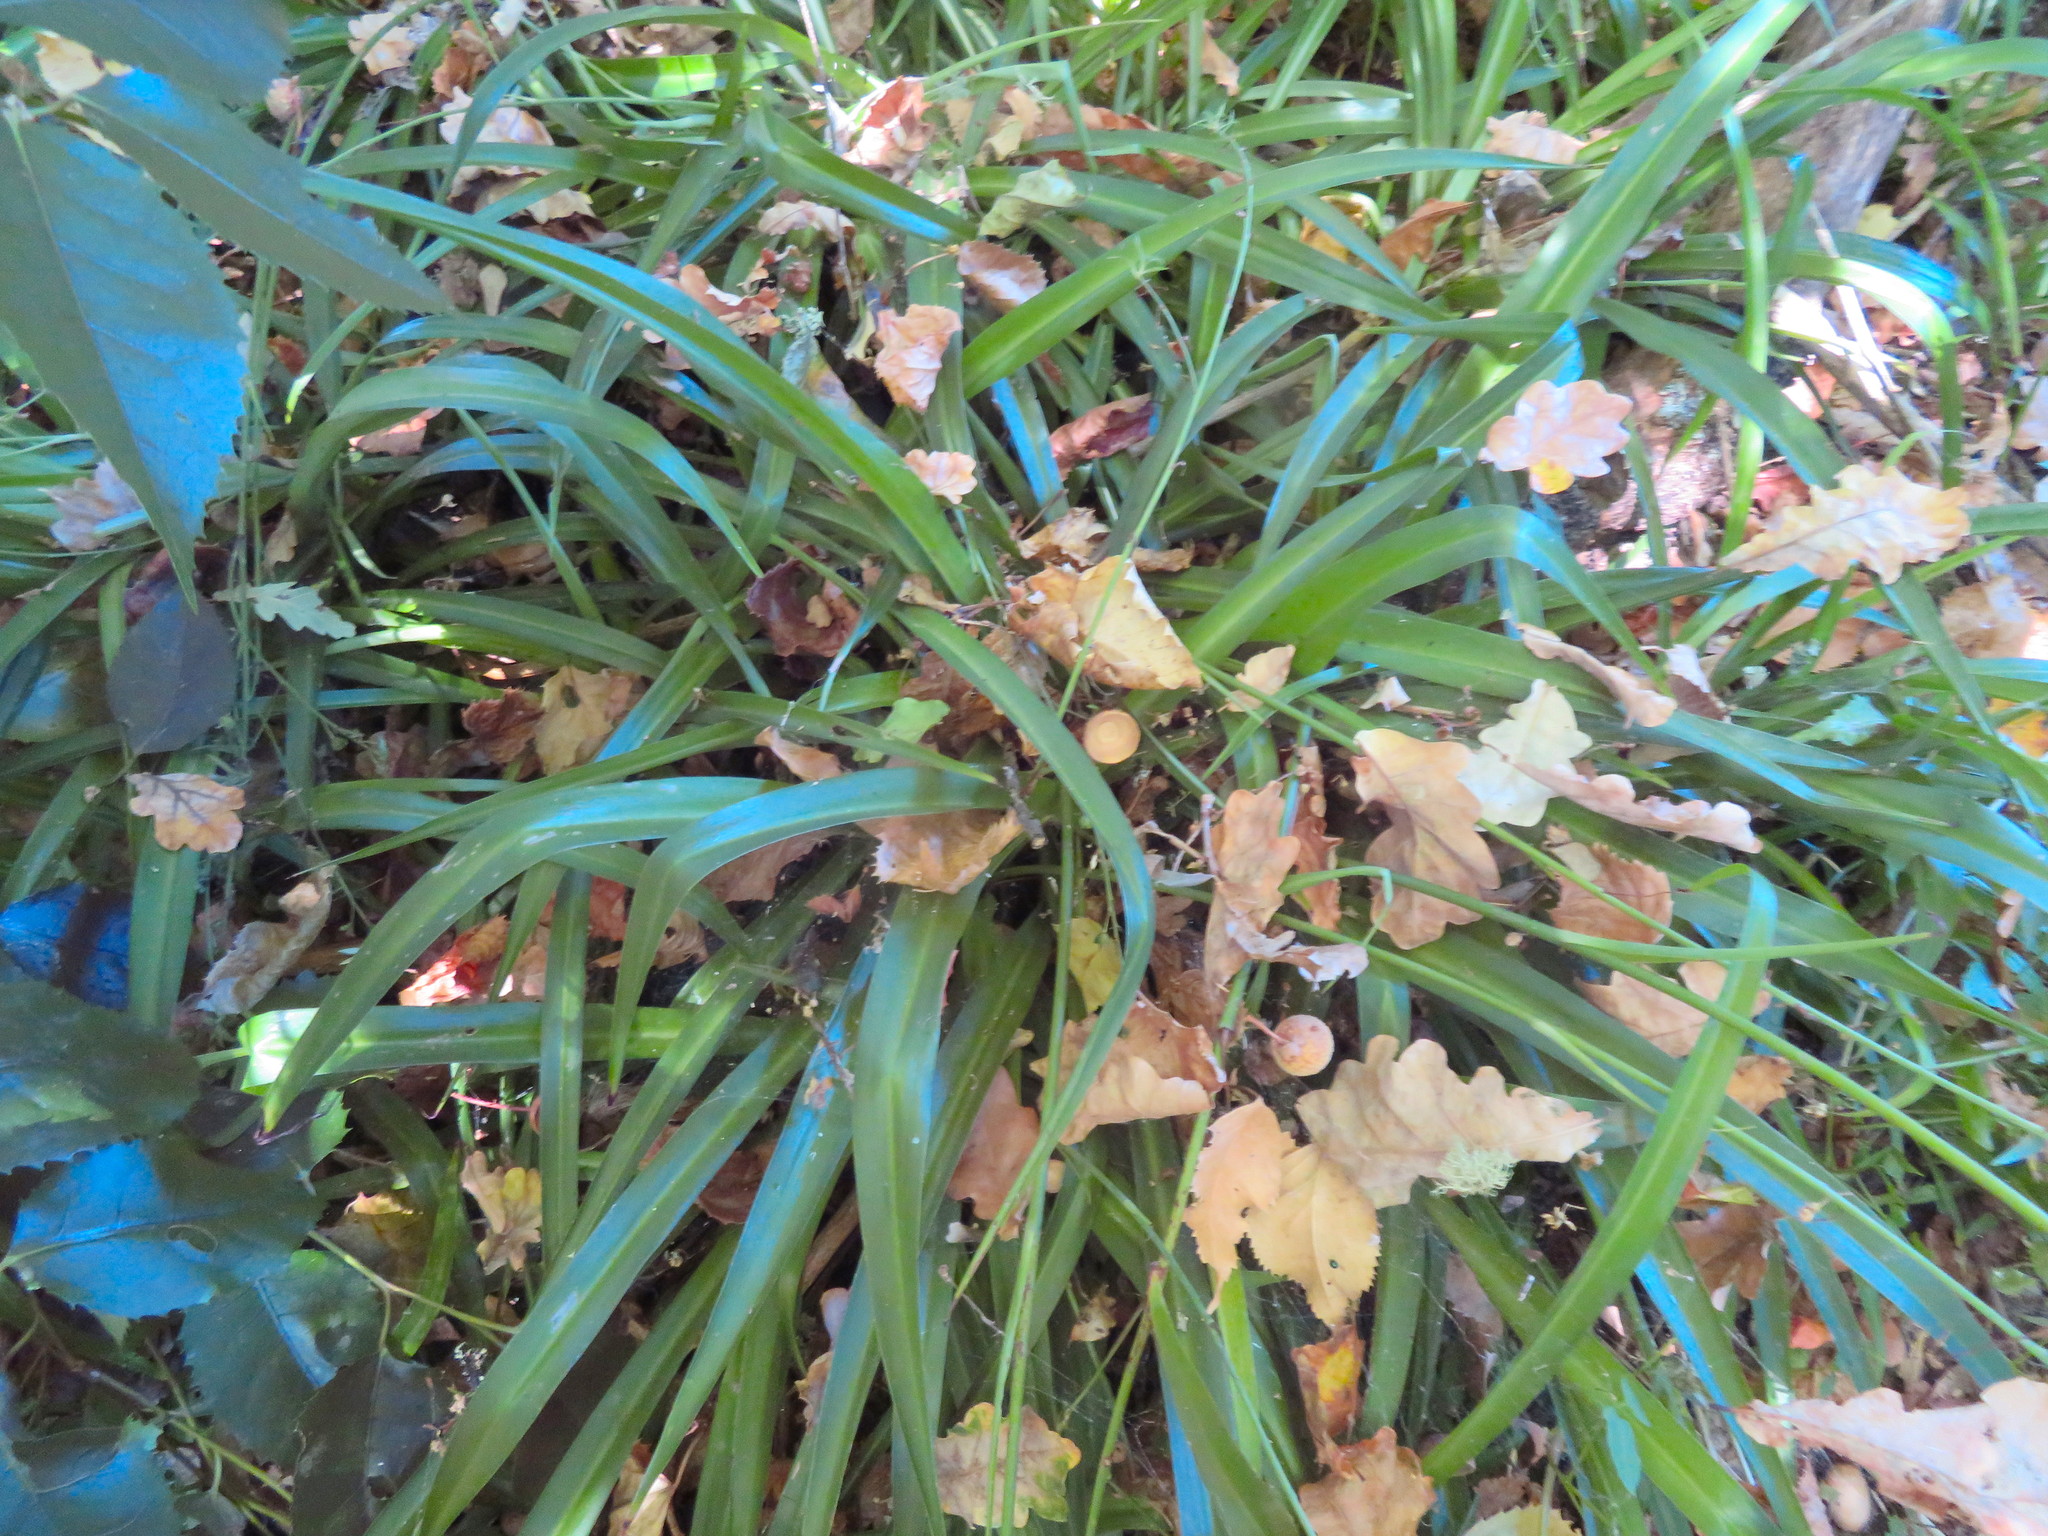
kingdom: Plantae
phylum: Tracheophyta
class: Liliopsida
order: Asparagales
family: Asparagaceae
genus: Chlorophytum
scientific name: Chlorophytum comosum
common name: Spider plant
